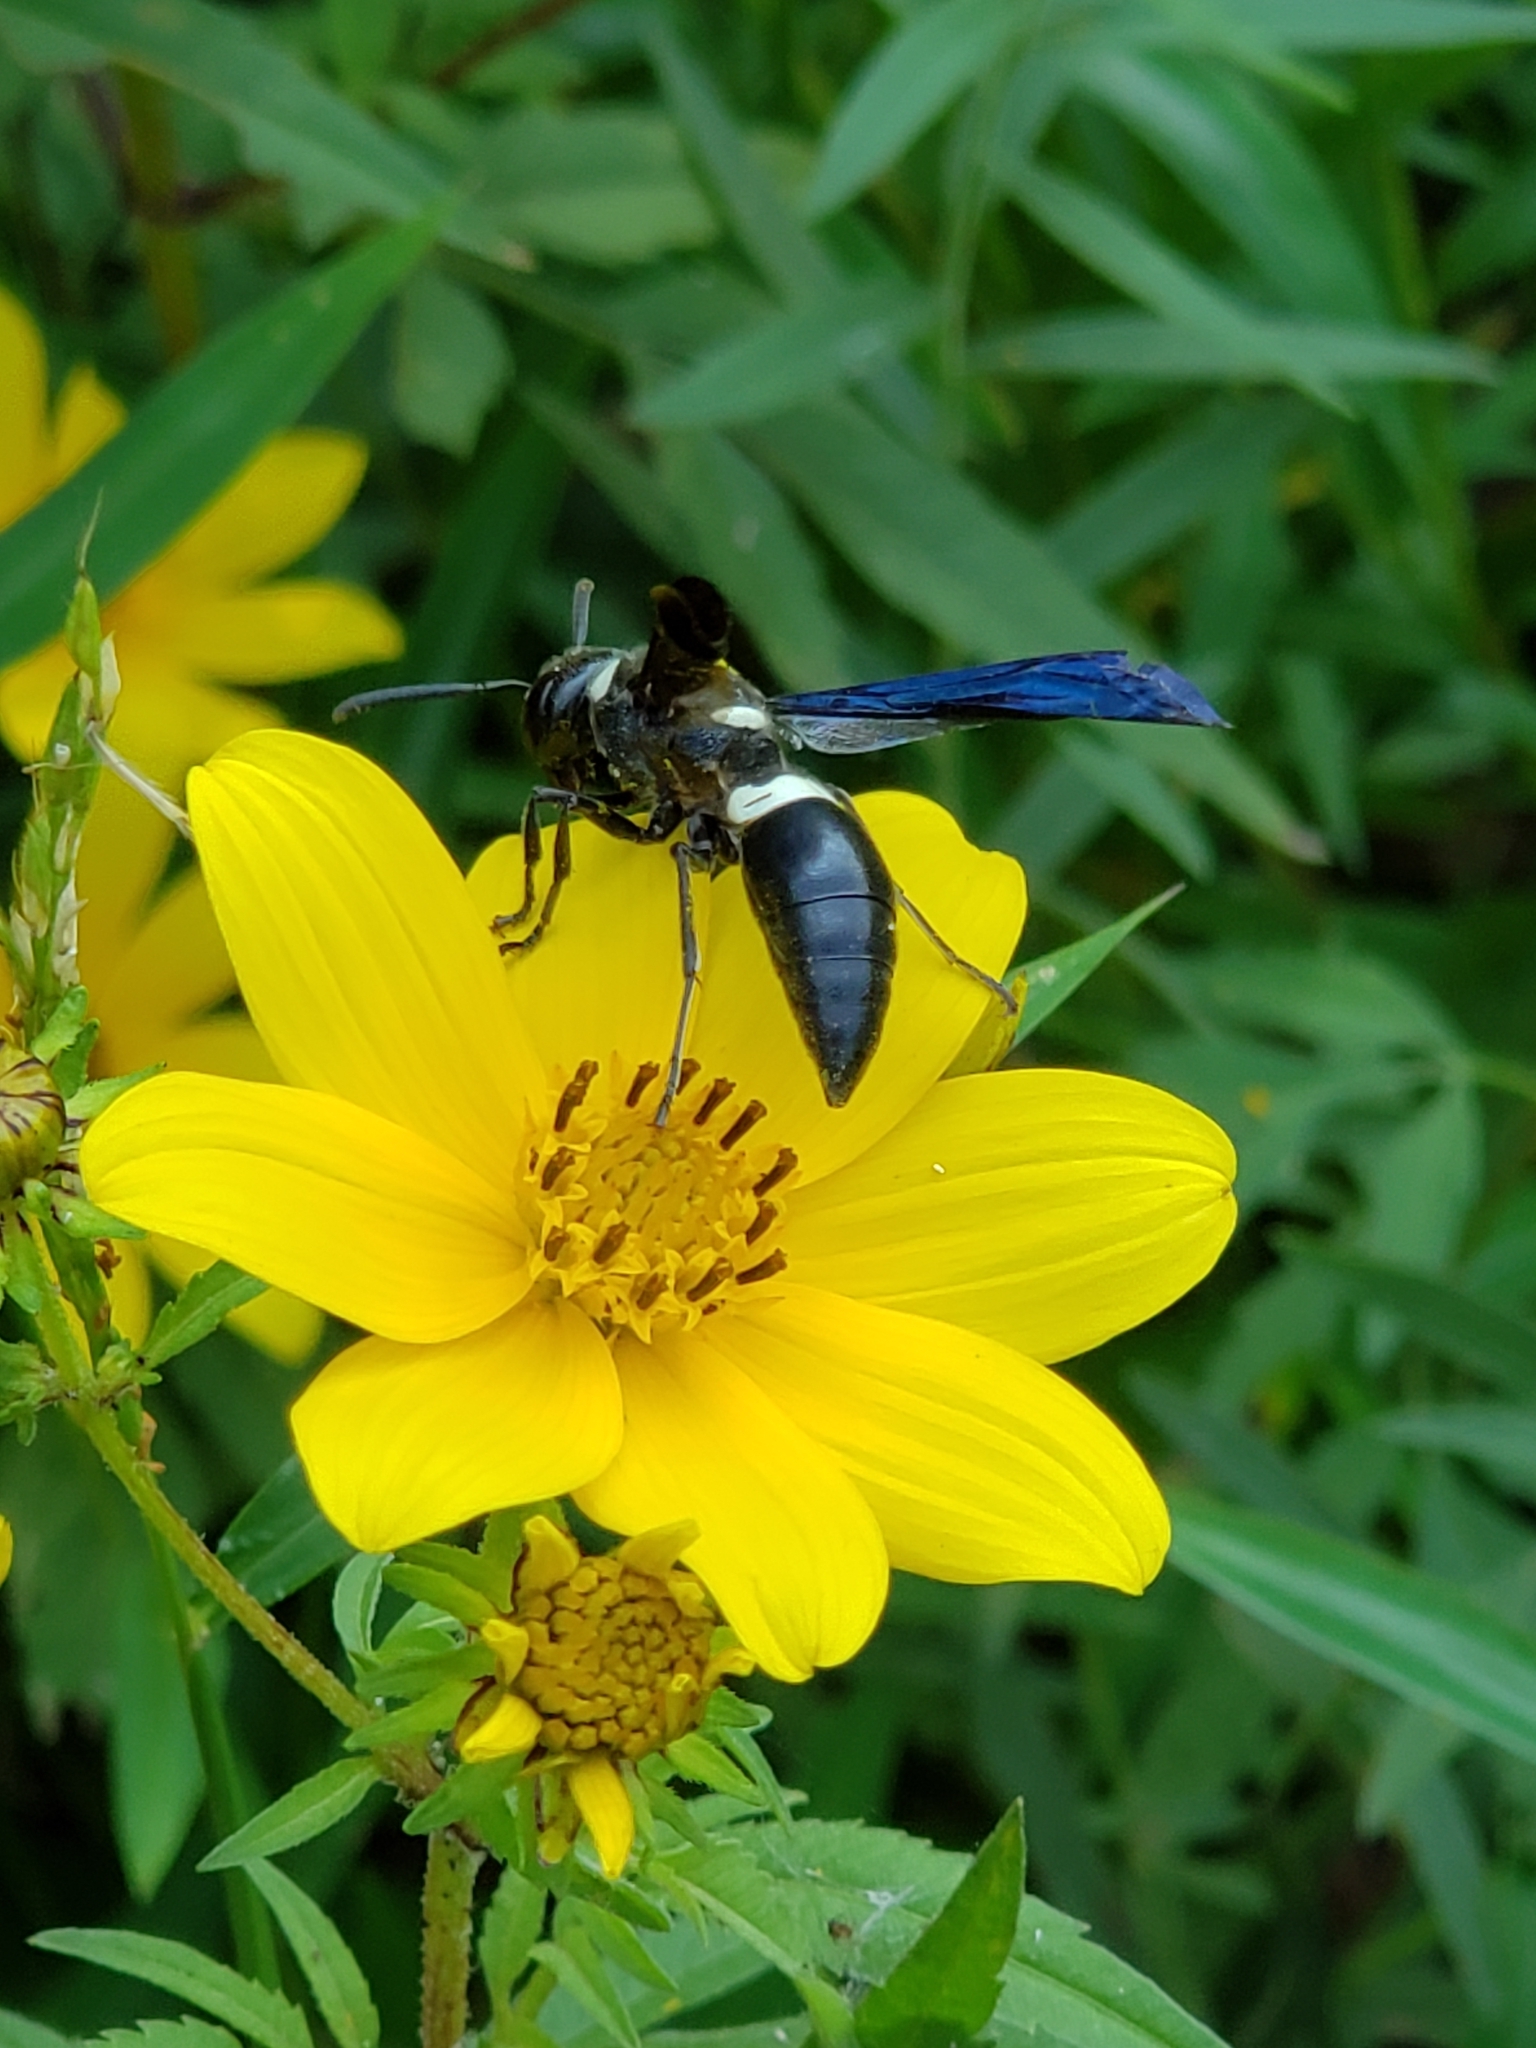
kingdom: Animalia
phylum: Arthropoda
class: Insecta
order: Hymenoptera
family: Eumenidae
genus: Monobia
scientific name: Monobia quadridens
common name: Four-toothed mason wasp
